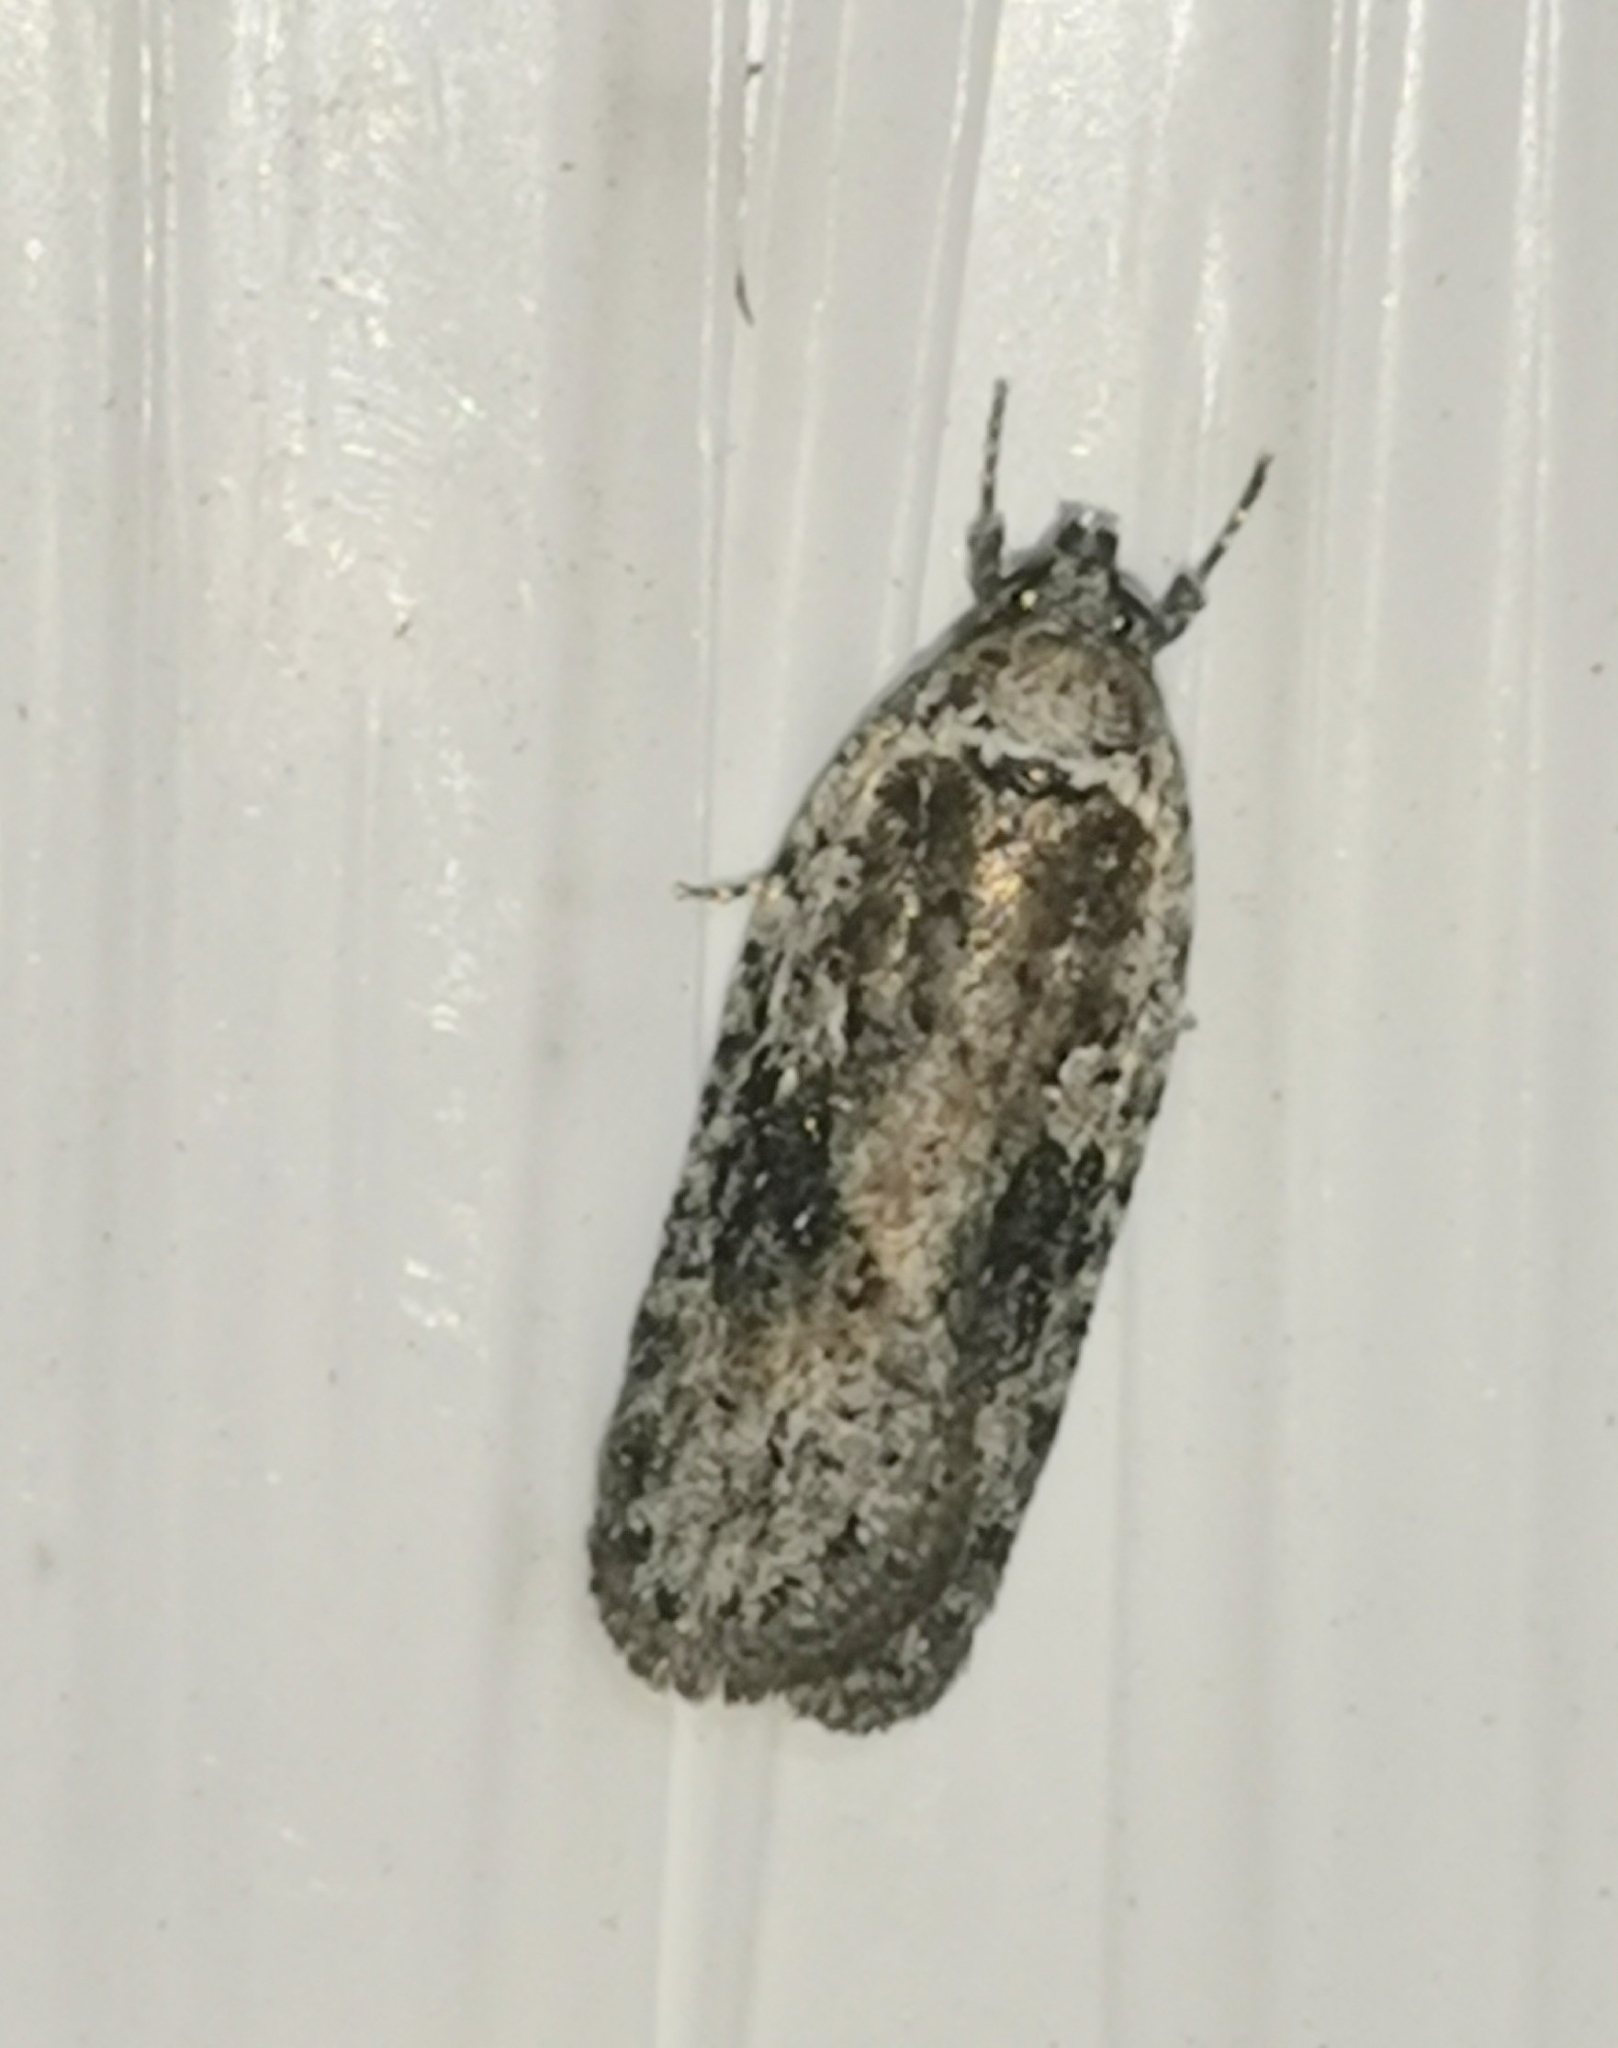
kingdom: Animalia
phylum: Arthropoda
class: Insecta
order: Lepidoptera
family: Depressariidae
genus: Exaeretia
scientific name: Exaeretia ciniflonella
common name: Scotch flat-body
